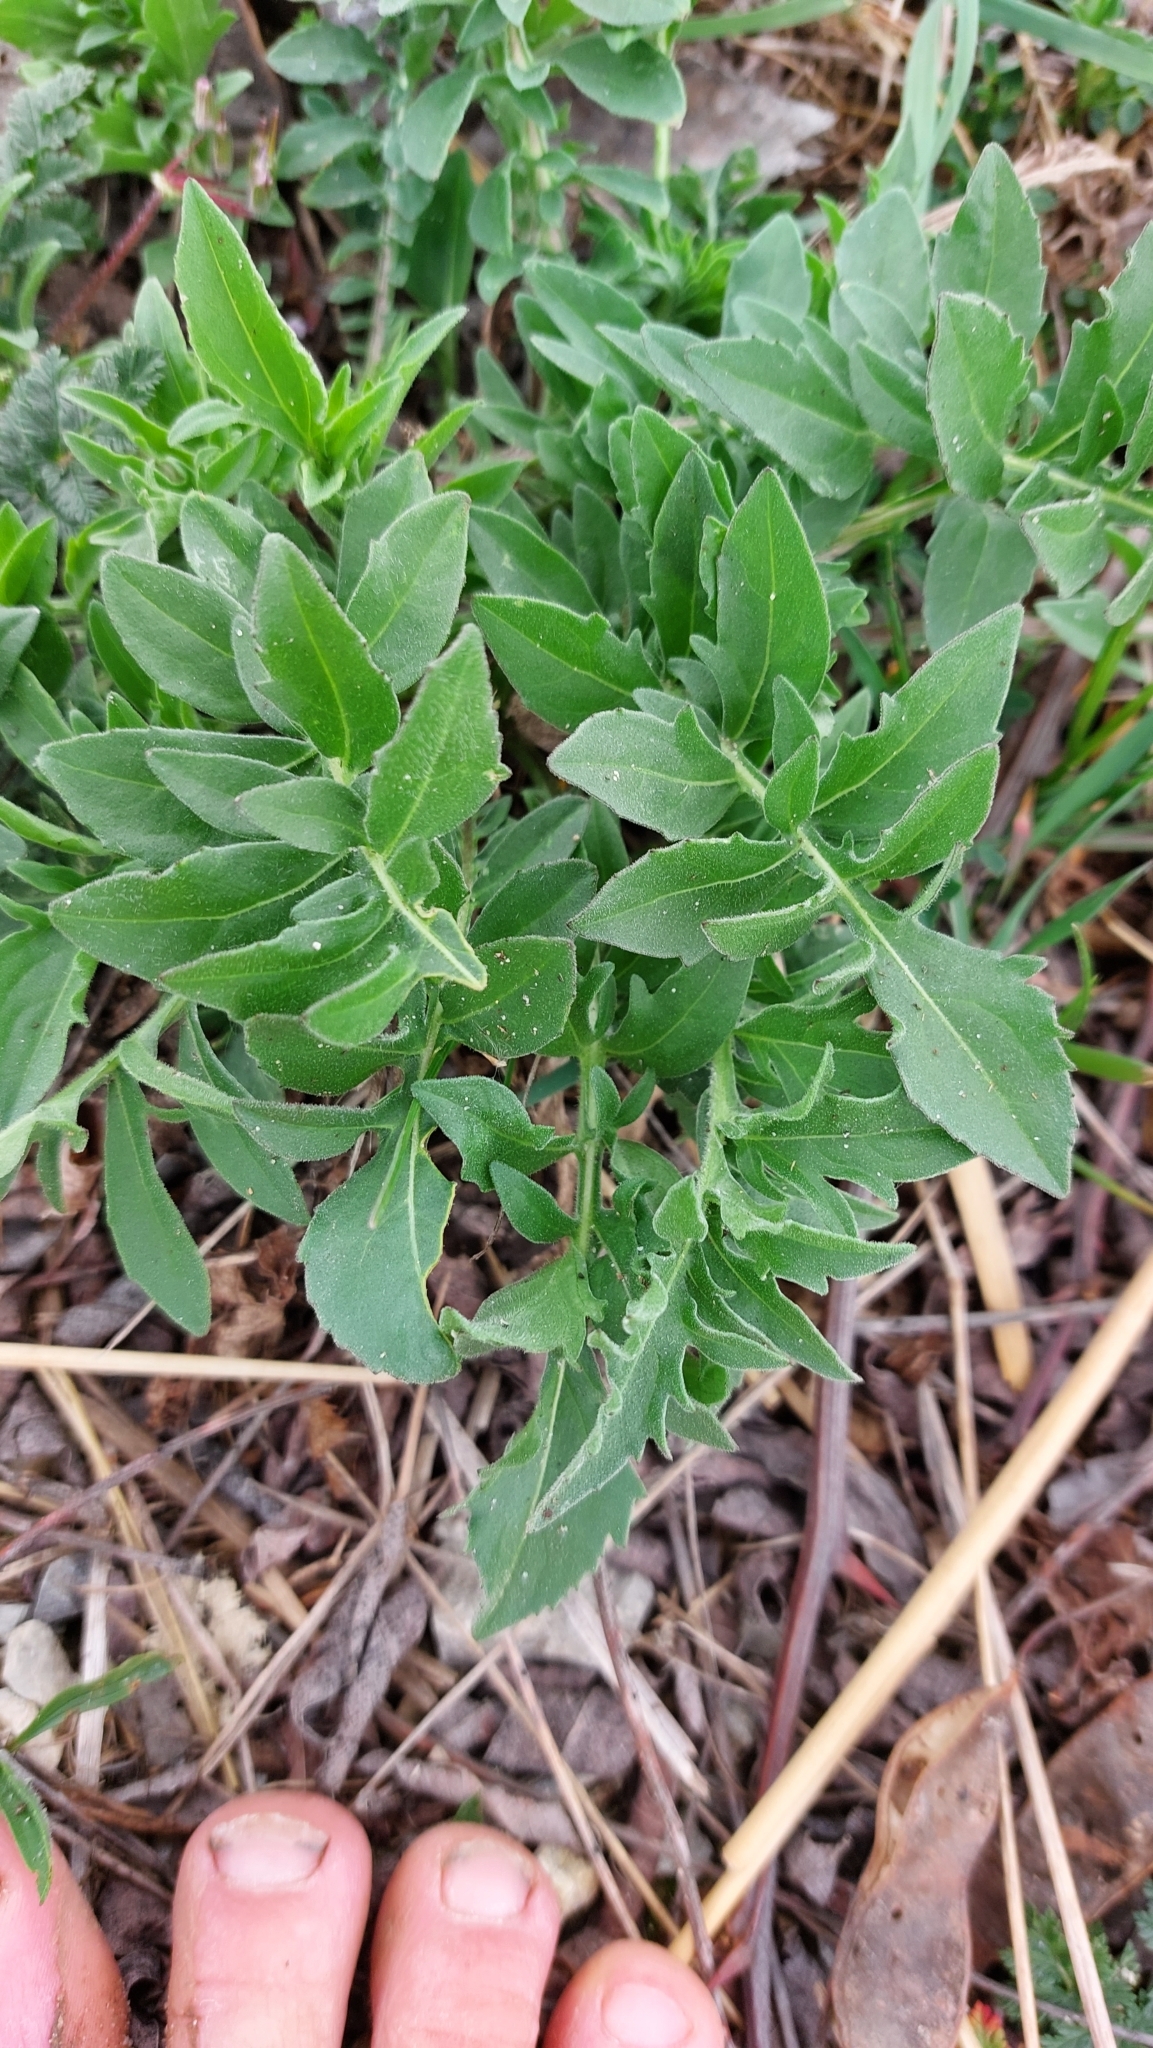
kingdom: Plantae
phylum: Tracheophyta
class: Magnoliopsida
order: Asterales
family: Asteraceae
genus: Centaurea
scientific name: Centaurea scabiosa
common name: Greater knapweed
